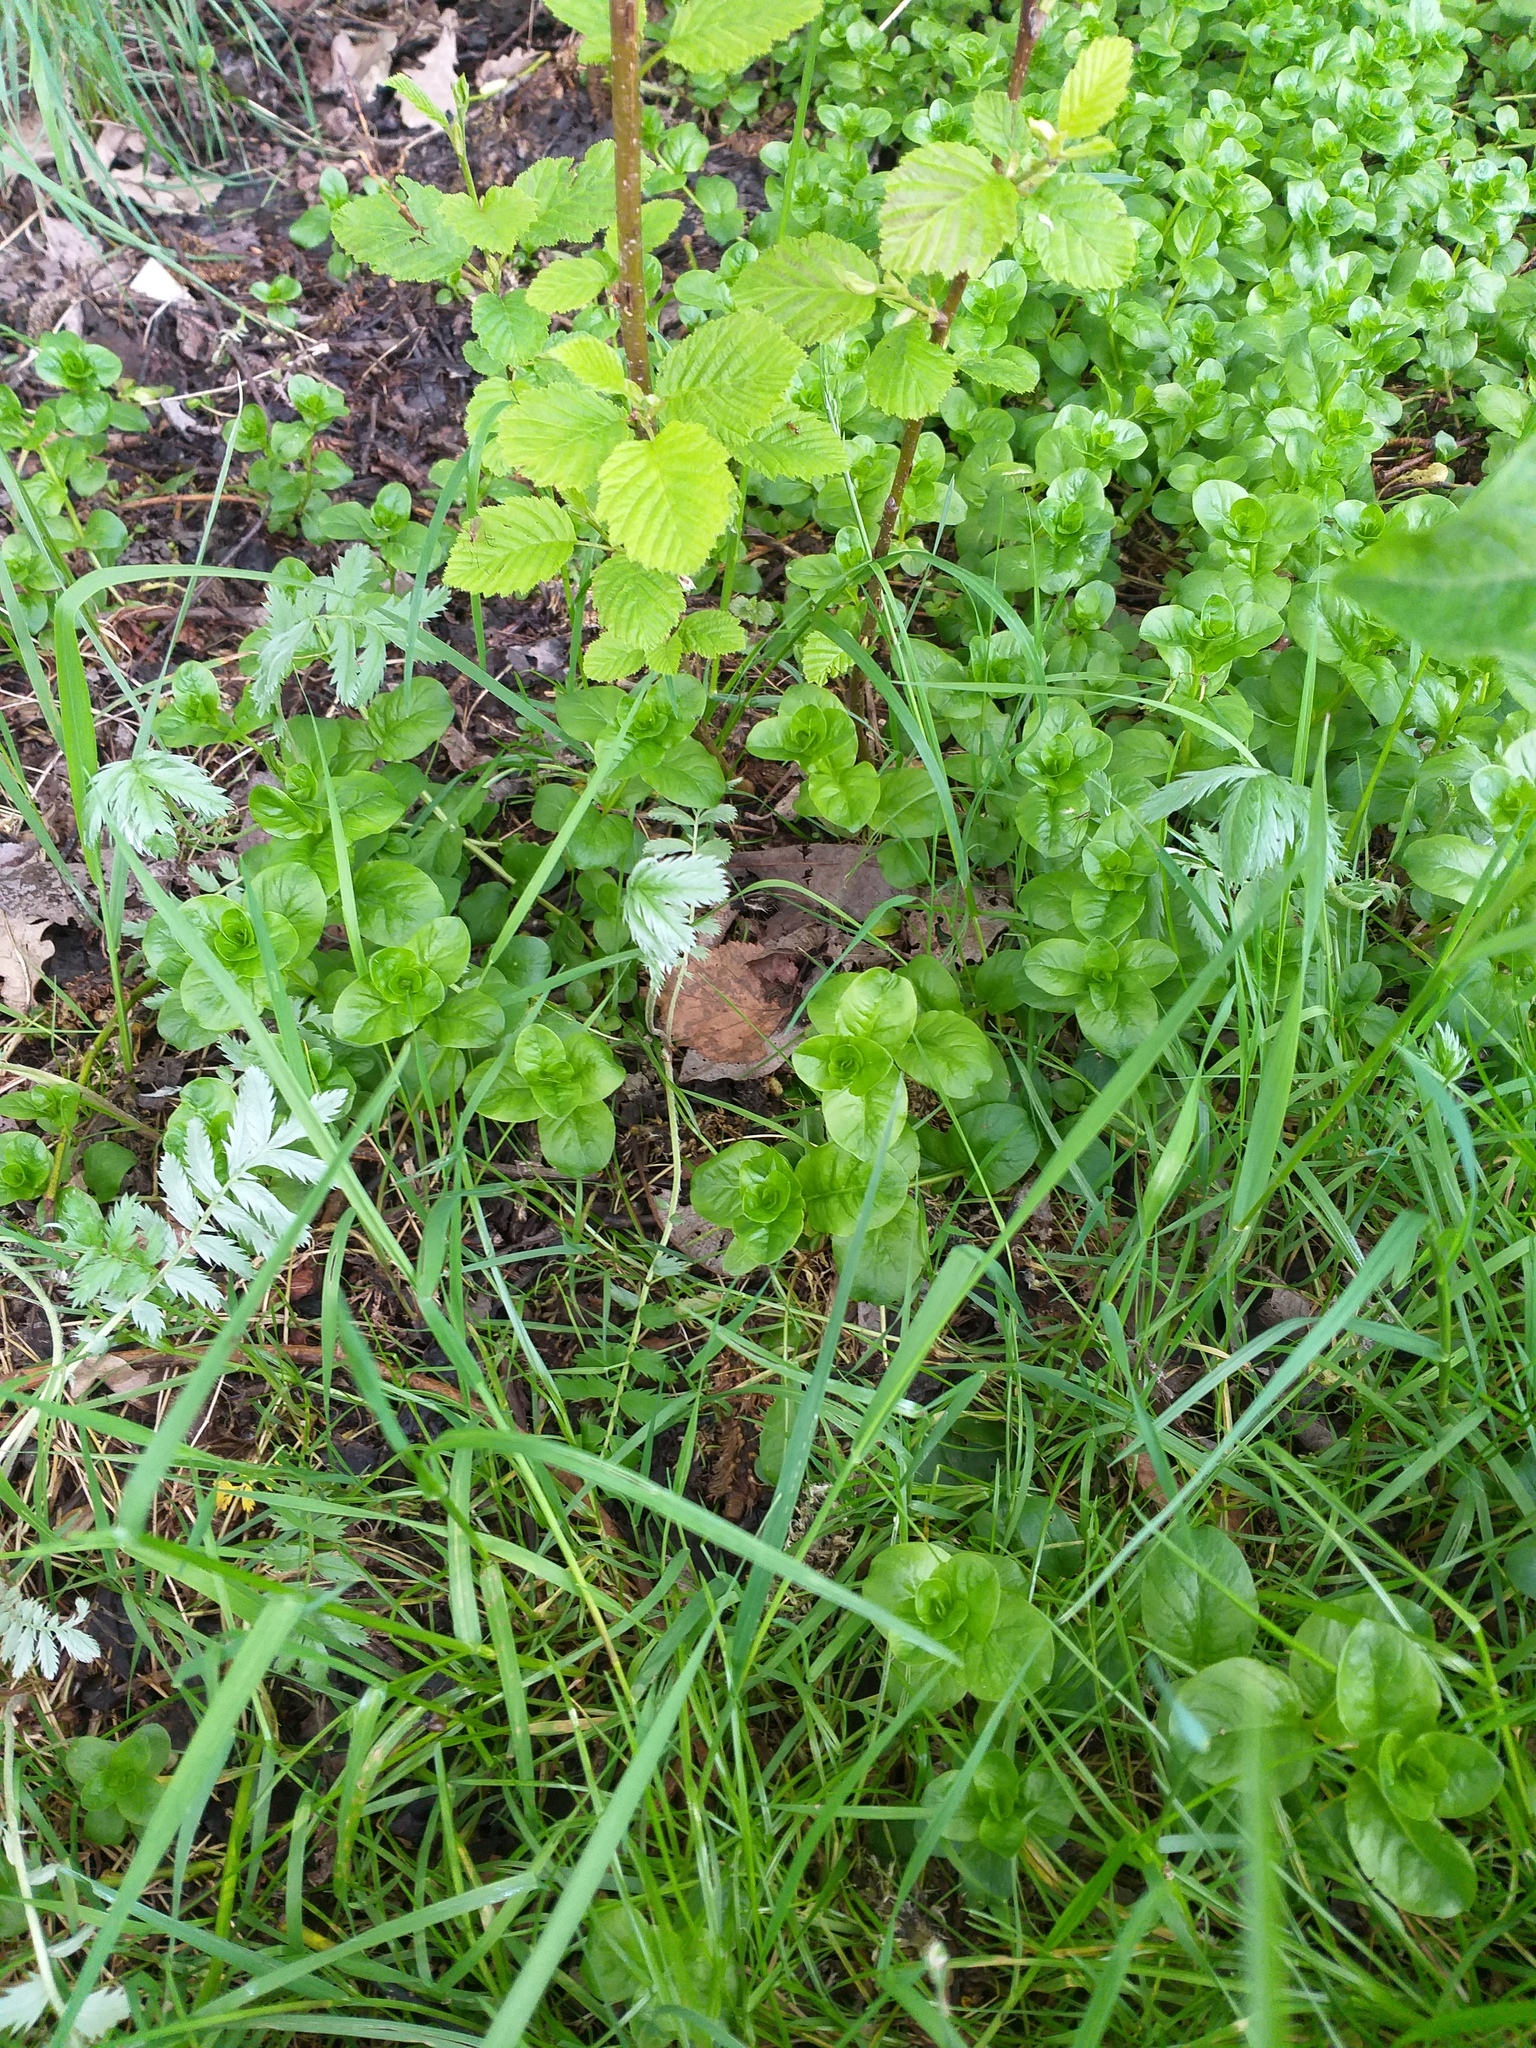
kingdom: Plantae
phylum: Tracheophyta
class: Magnoliopsida
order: Ericales
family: Primulaceae
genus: Lysimachia
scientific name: Lysimachia nummularia
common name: Moneywort
